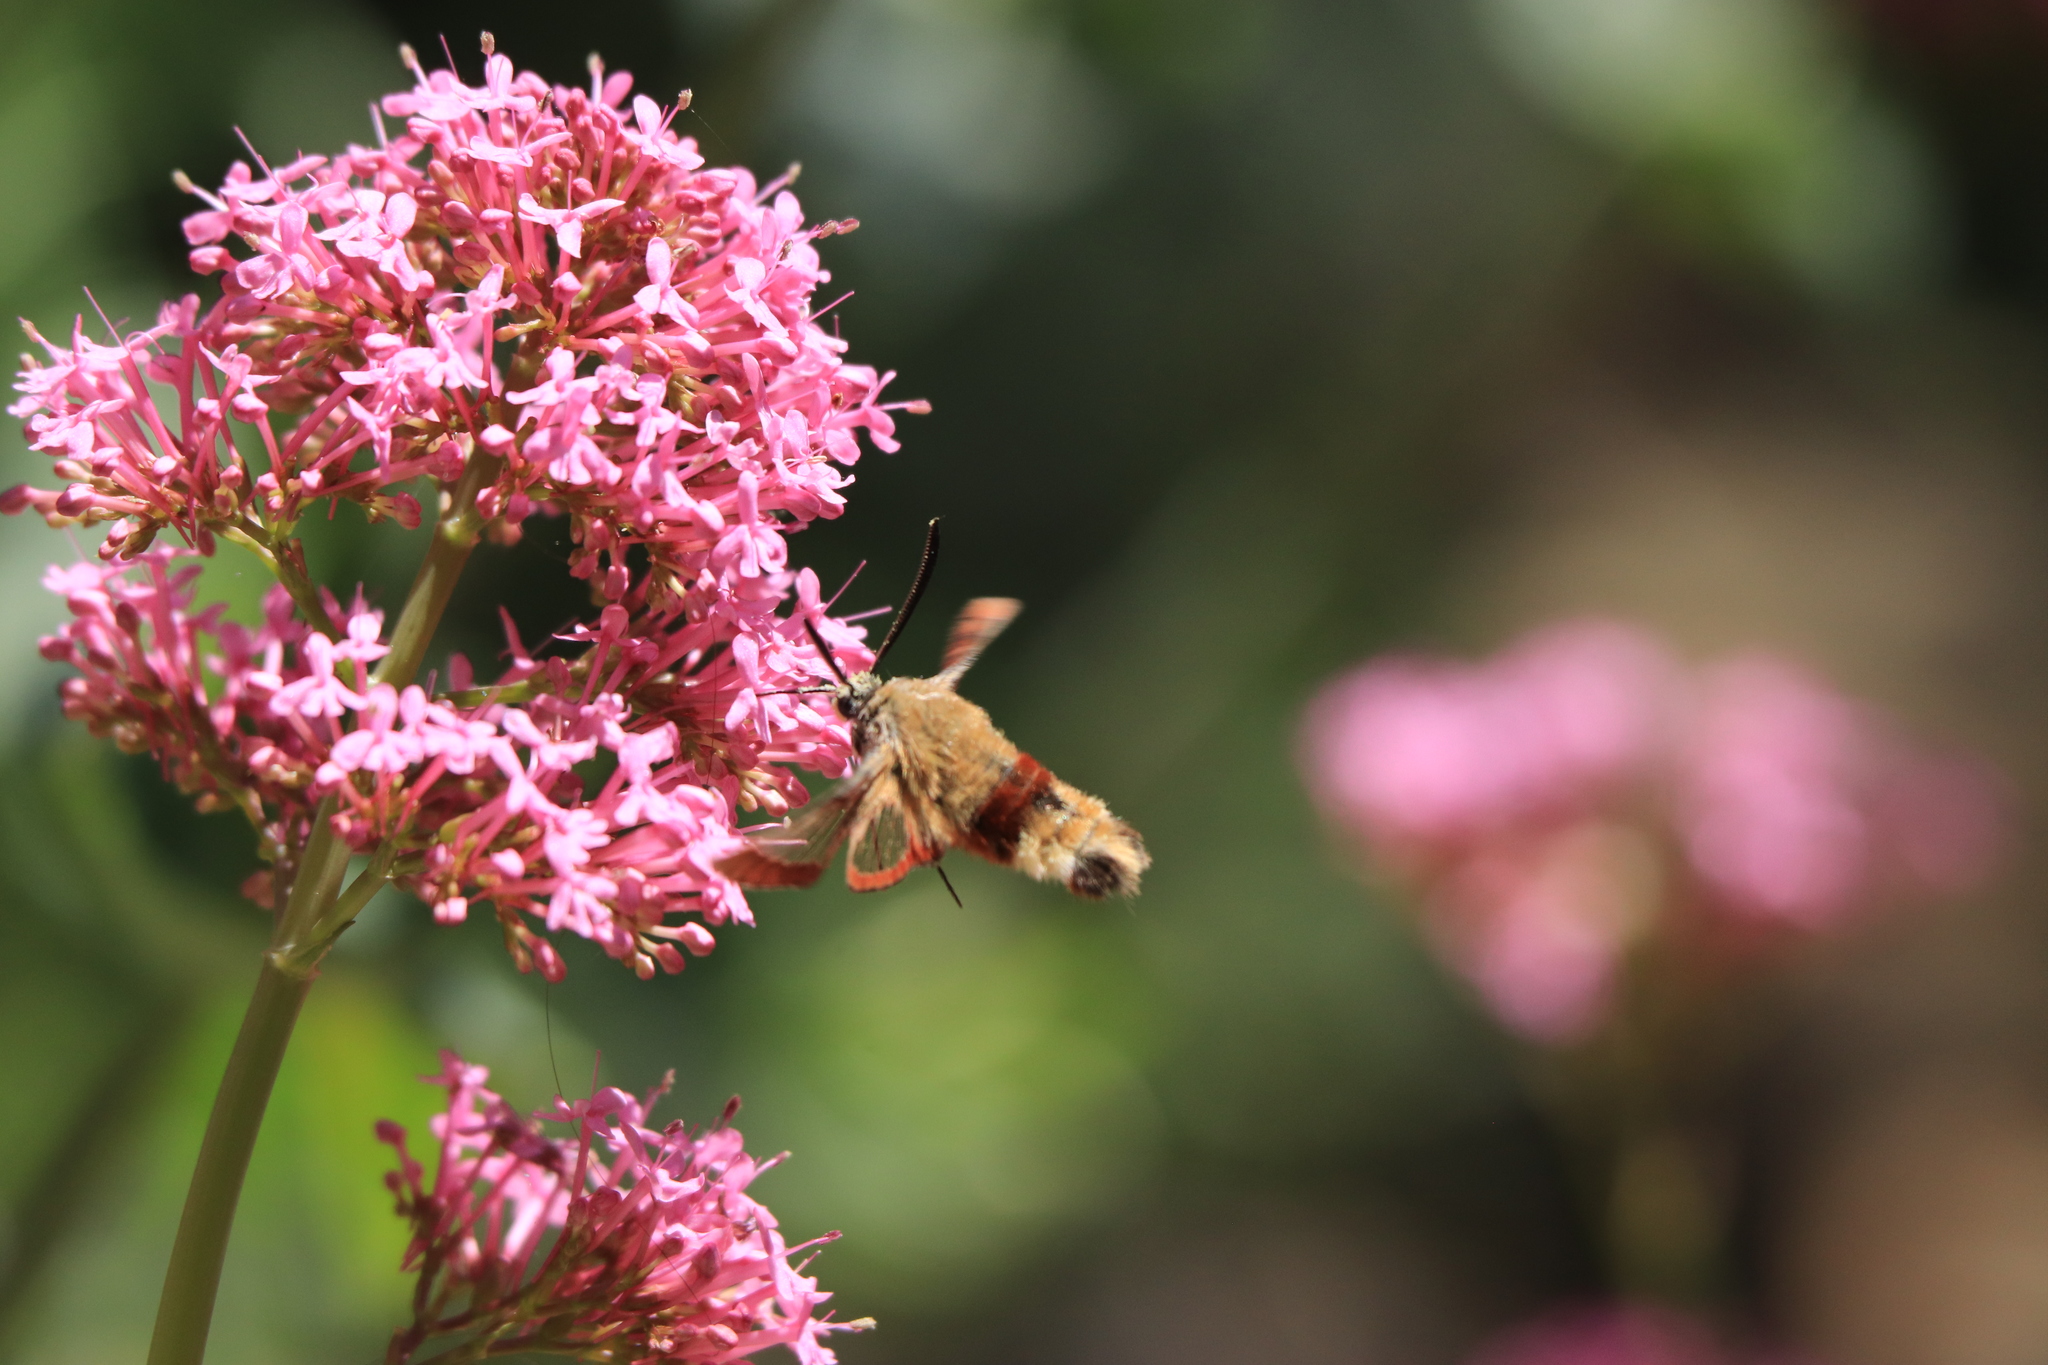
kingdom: Animalia
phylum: Arthropoda
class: Insecta
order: Lepidoptera
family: Sphingidae
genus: Hemaris
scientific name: Hemaris fuciformis
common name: Broad-bordered bee hawk-moth
